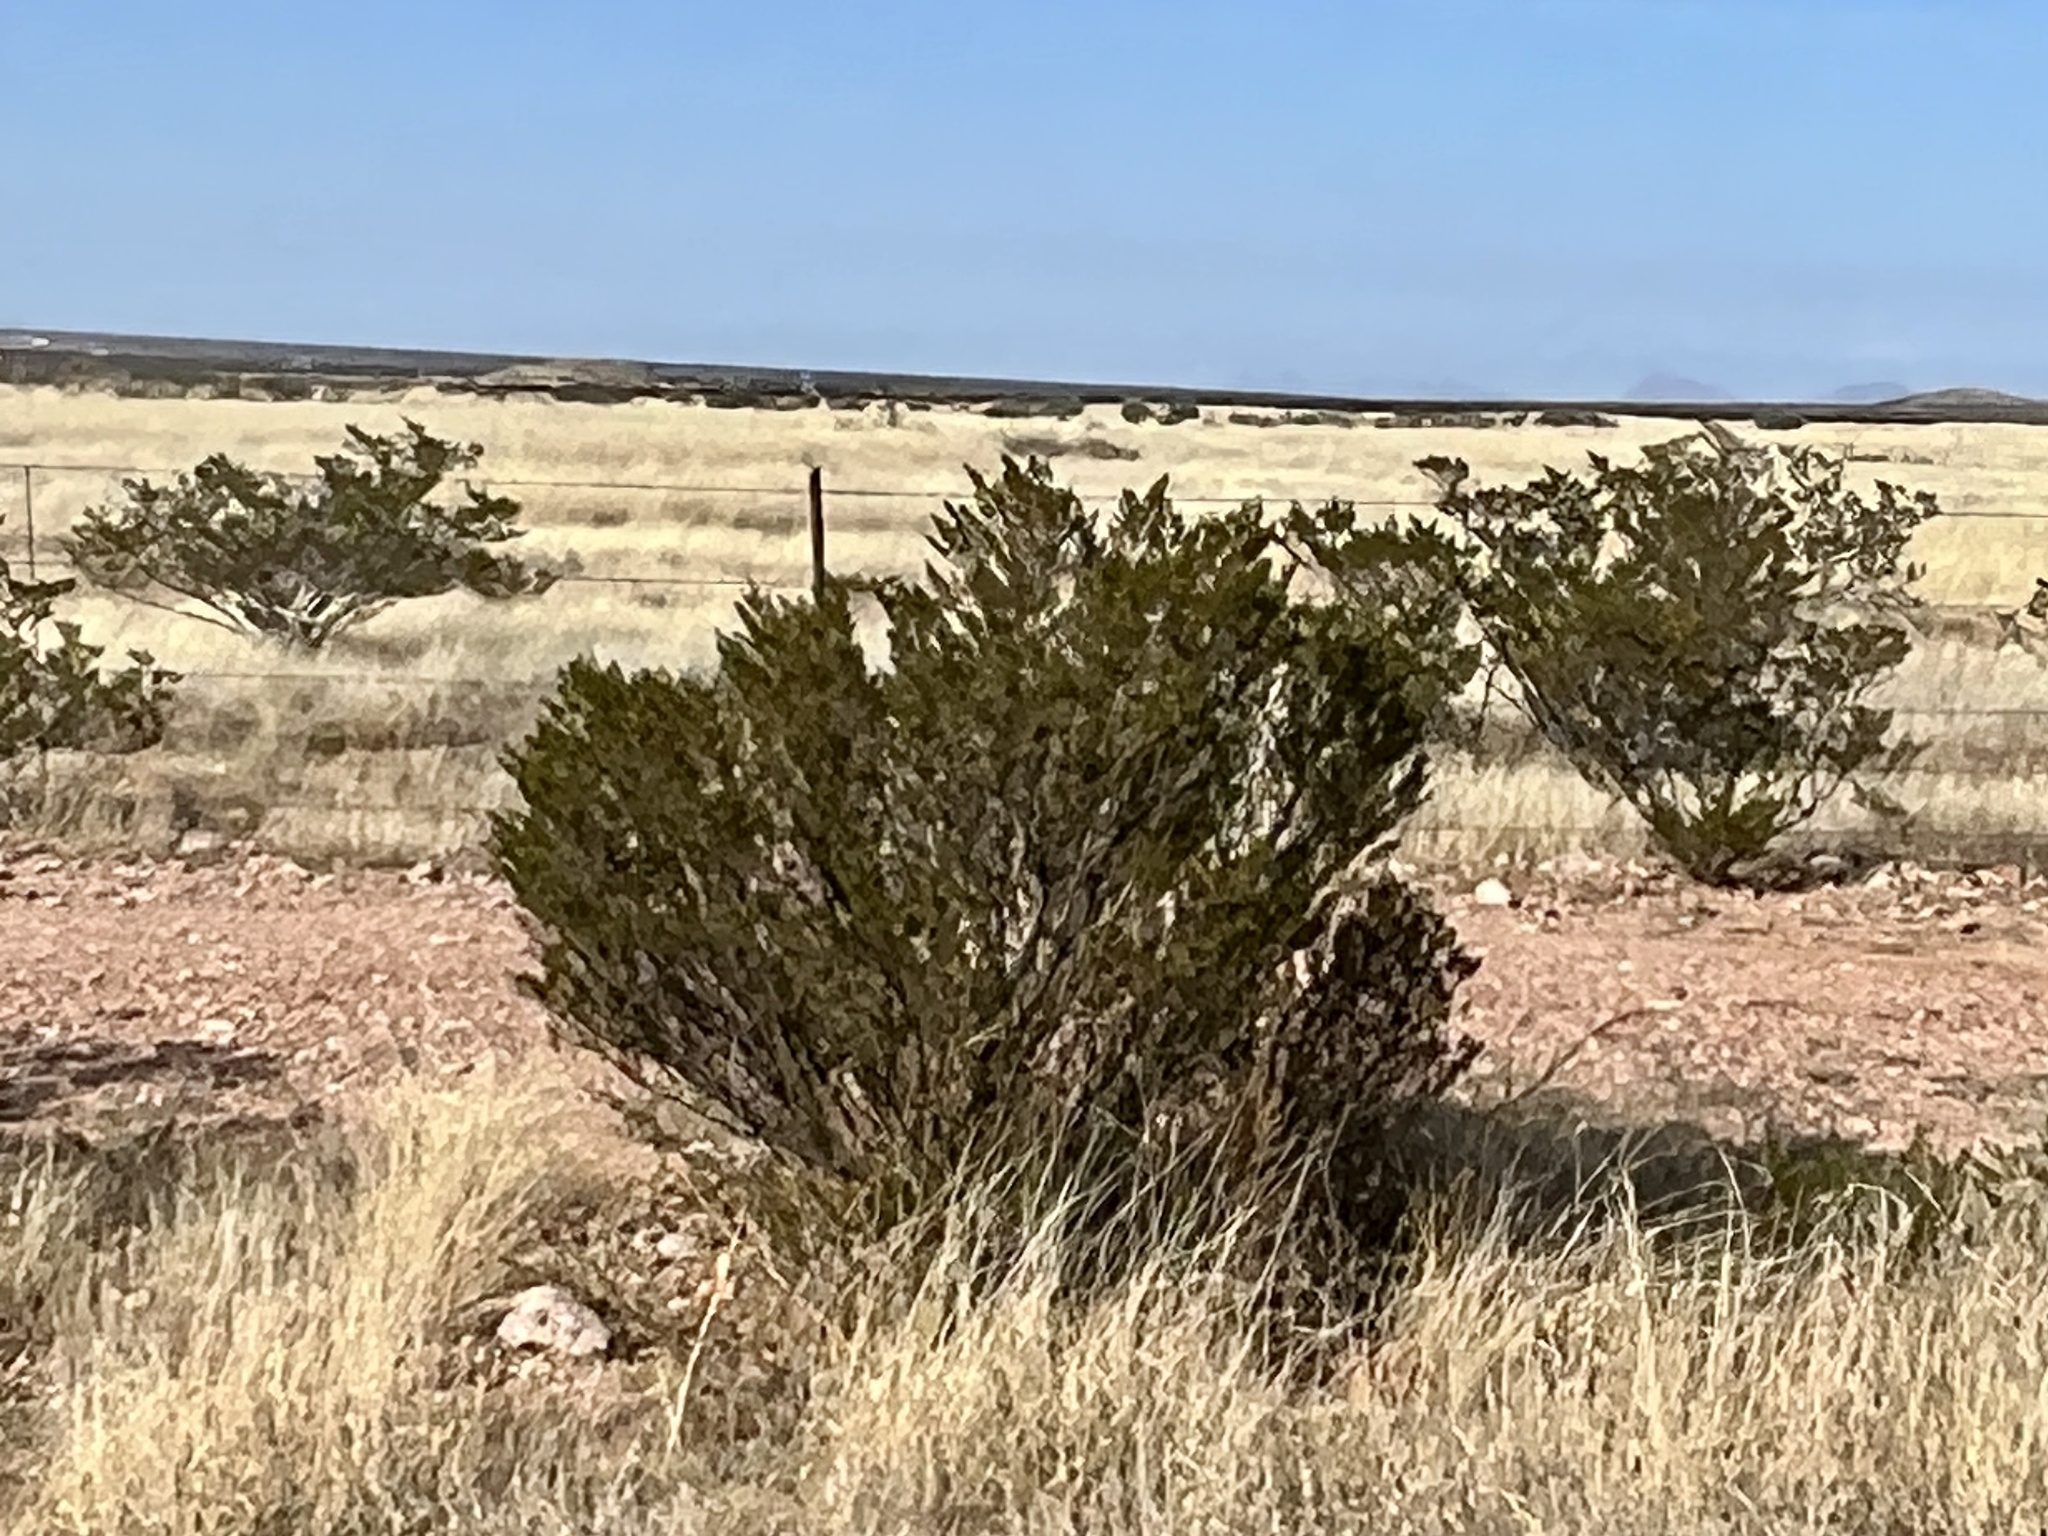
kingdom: Plantae
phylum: Tracheophyta
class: Magnoliopsida
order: Zygophyllales
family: Zygophyllaceae
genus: Larrea
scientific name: Larrea tridentata
